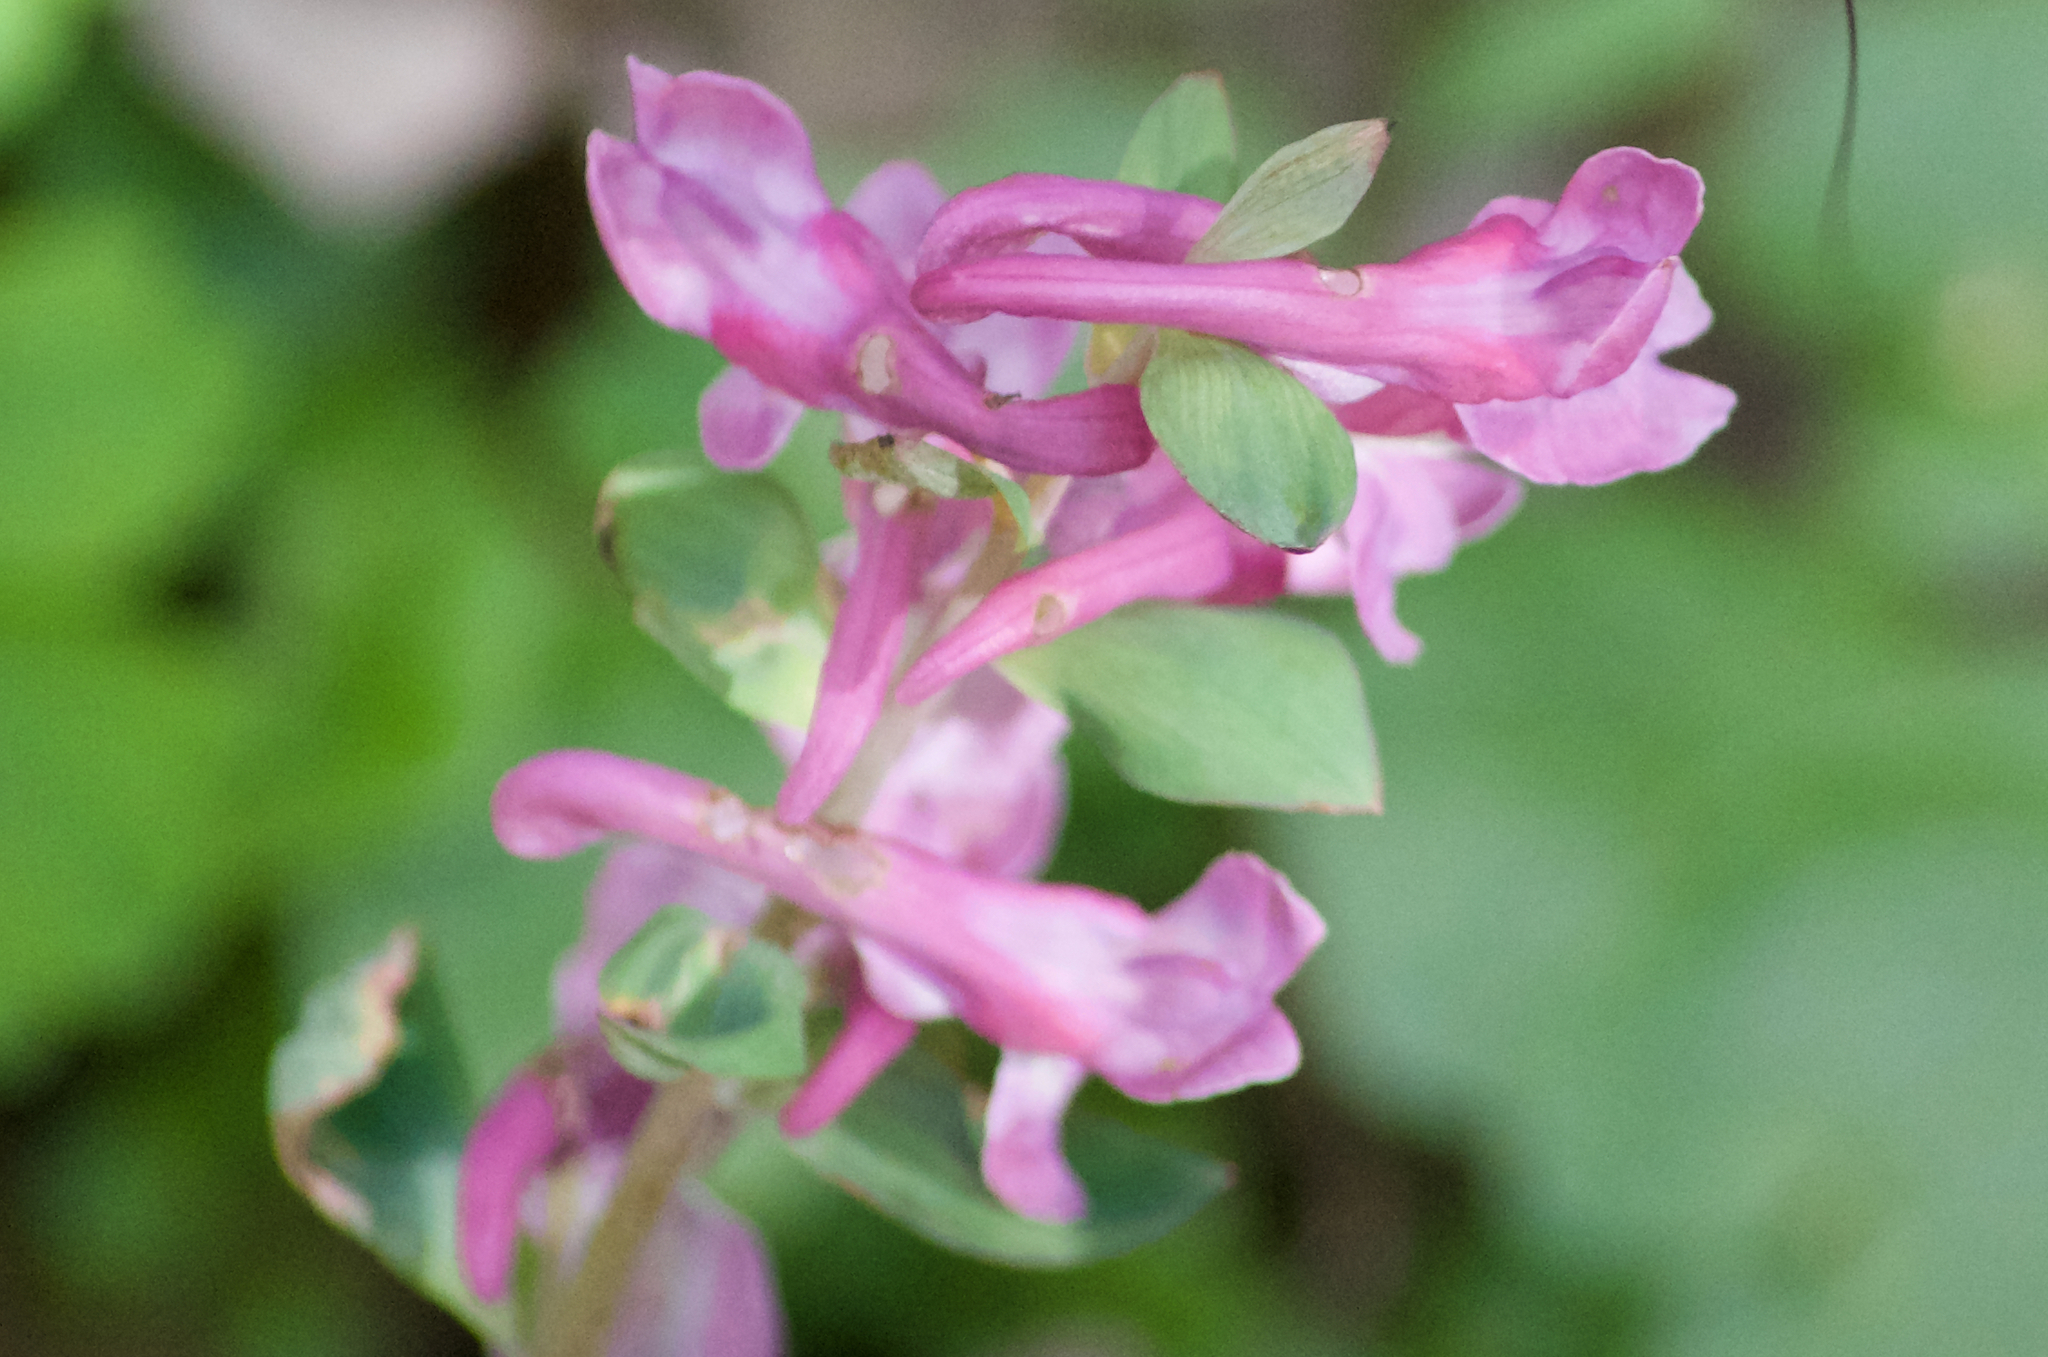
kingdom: Plantae
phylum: Tracheophyta
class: Magnoliopsida
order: Ranunculales
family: Papaveraceae
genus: Corydalis
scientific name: Corydalis cava
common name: Hollowroot
